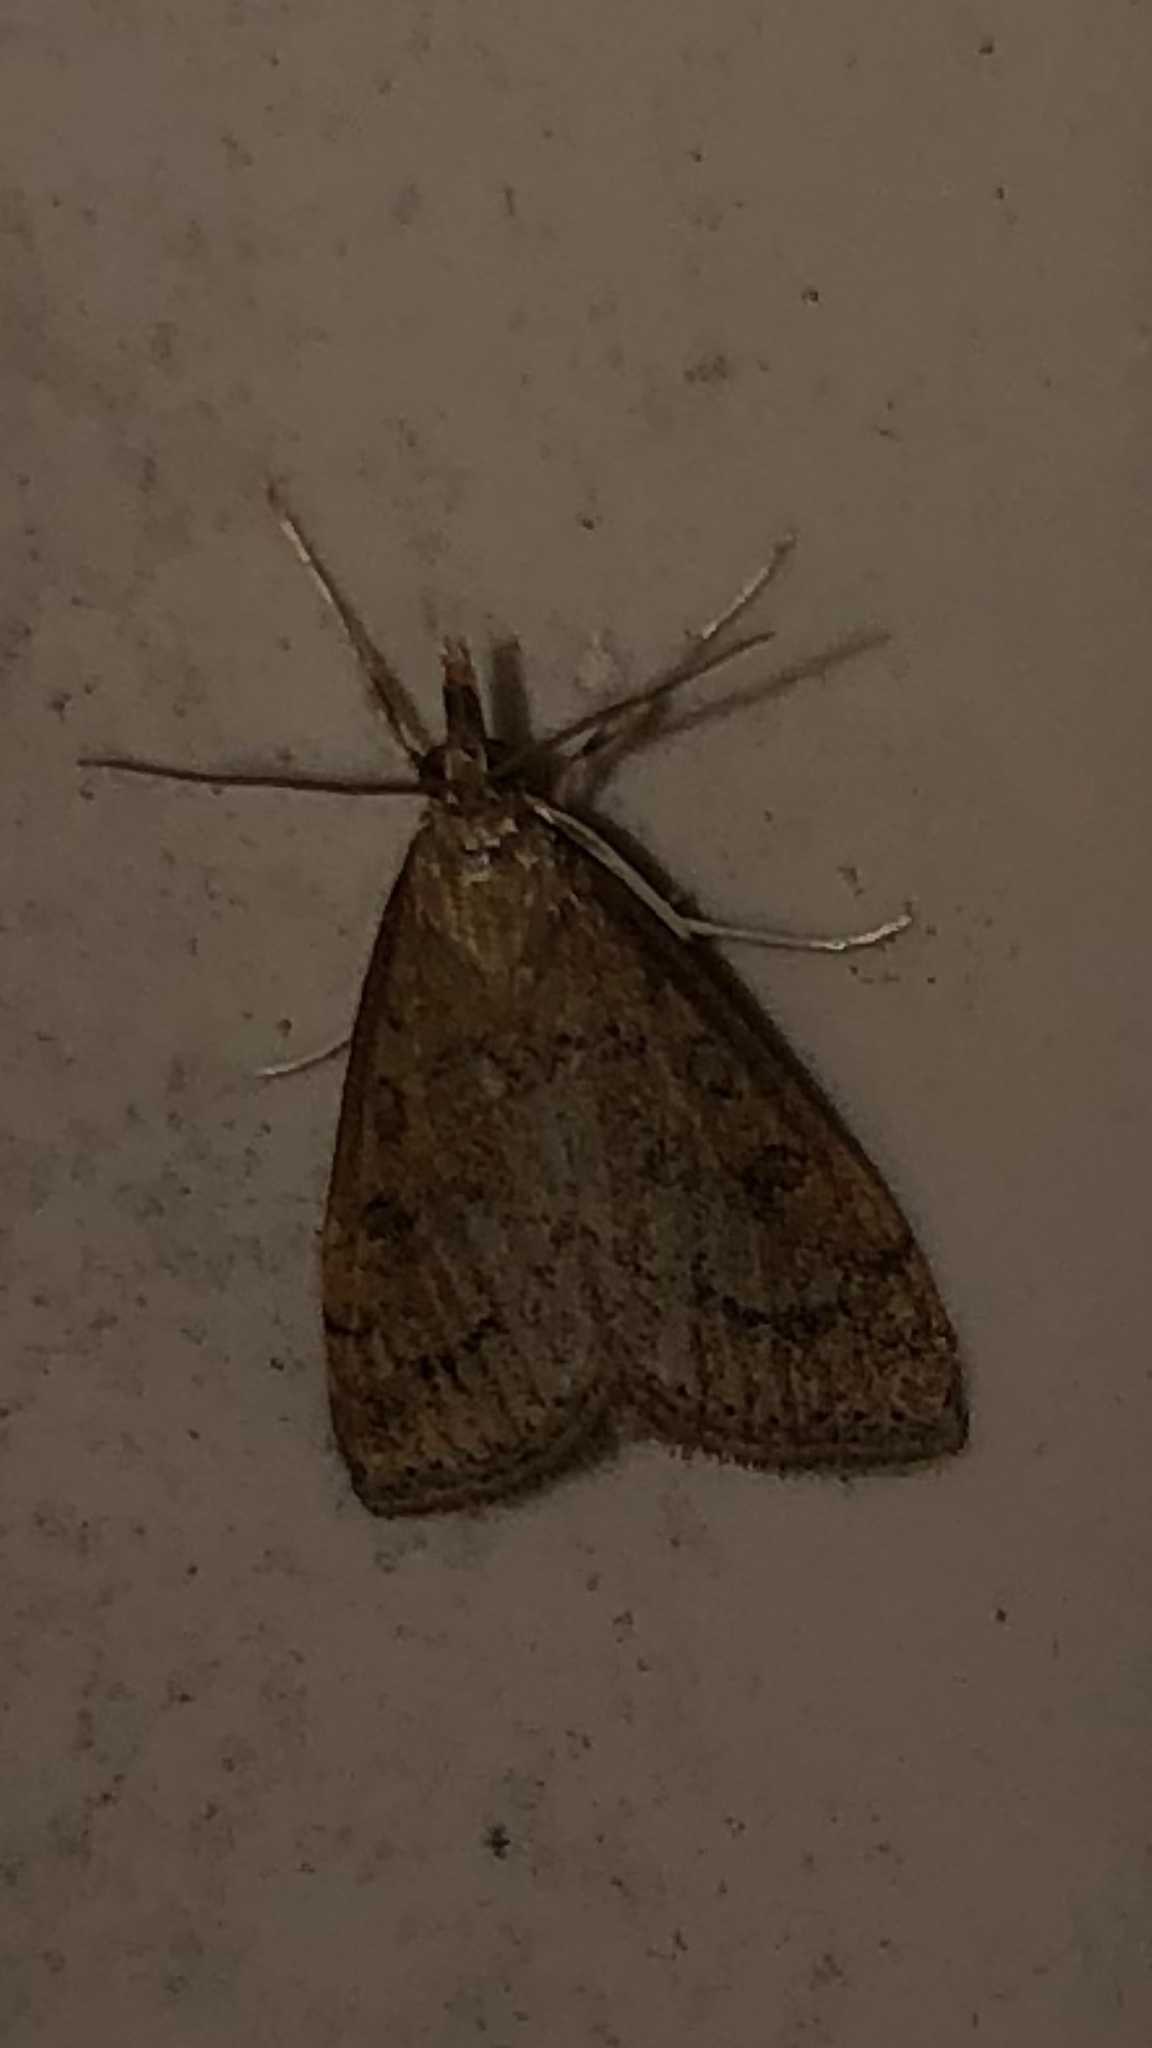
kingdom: Animalia
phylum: Arthropoda
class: Insecta
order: Lepidoptera
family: Crambidae
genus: Udea
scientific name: Udea rubigalis
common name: Celery leaftier moth
